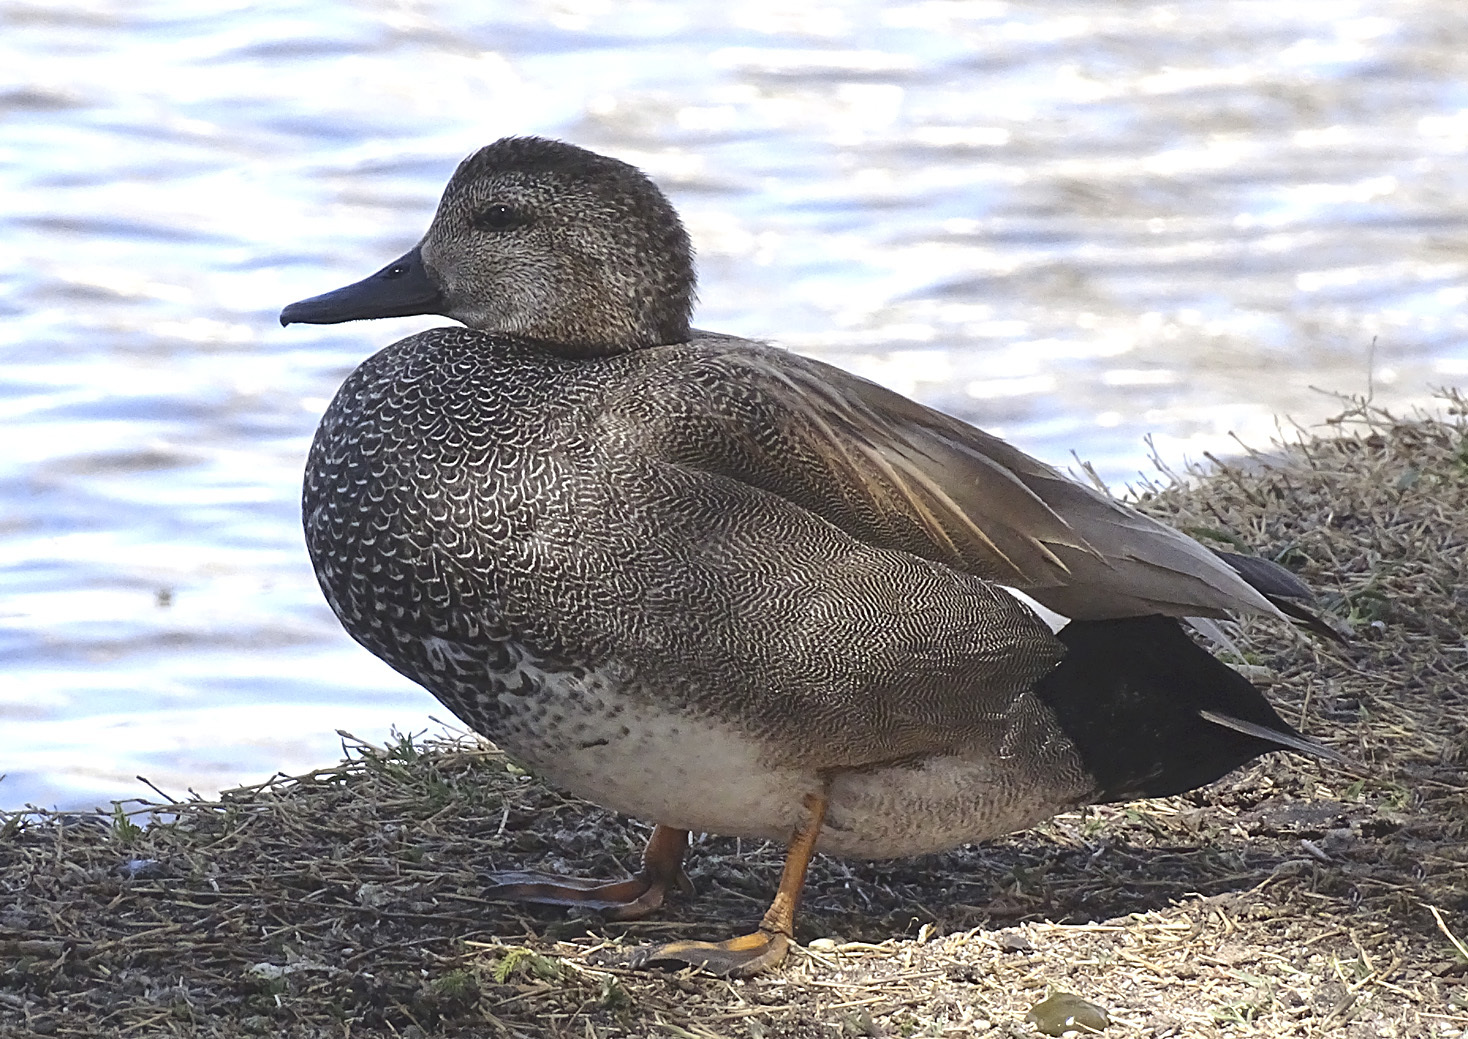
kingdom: Animalia
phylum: Chordata
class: Aves
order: Anseriformes
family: Anatidae
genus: Mareca
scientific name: Mareca strepera
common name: Gadwall
